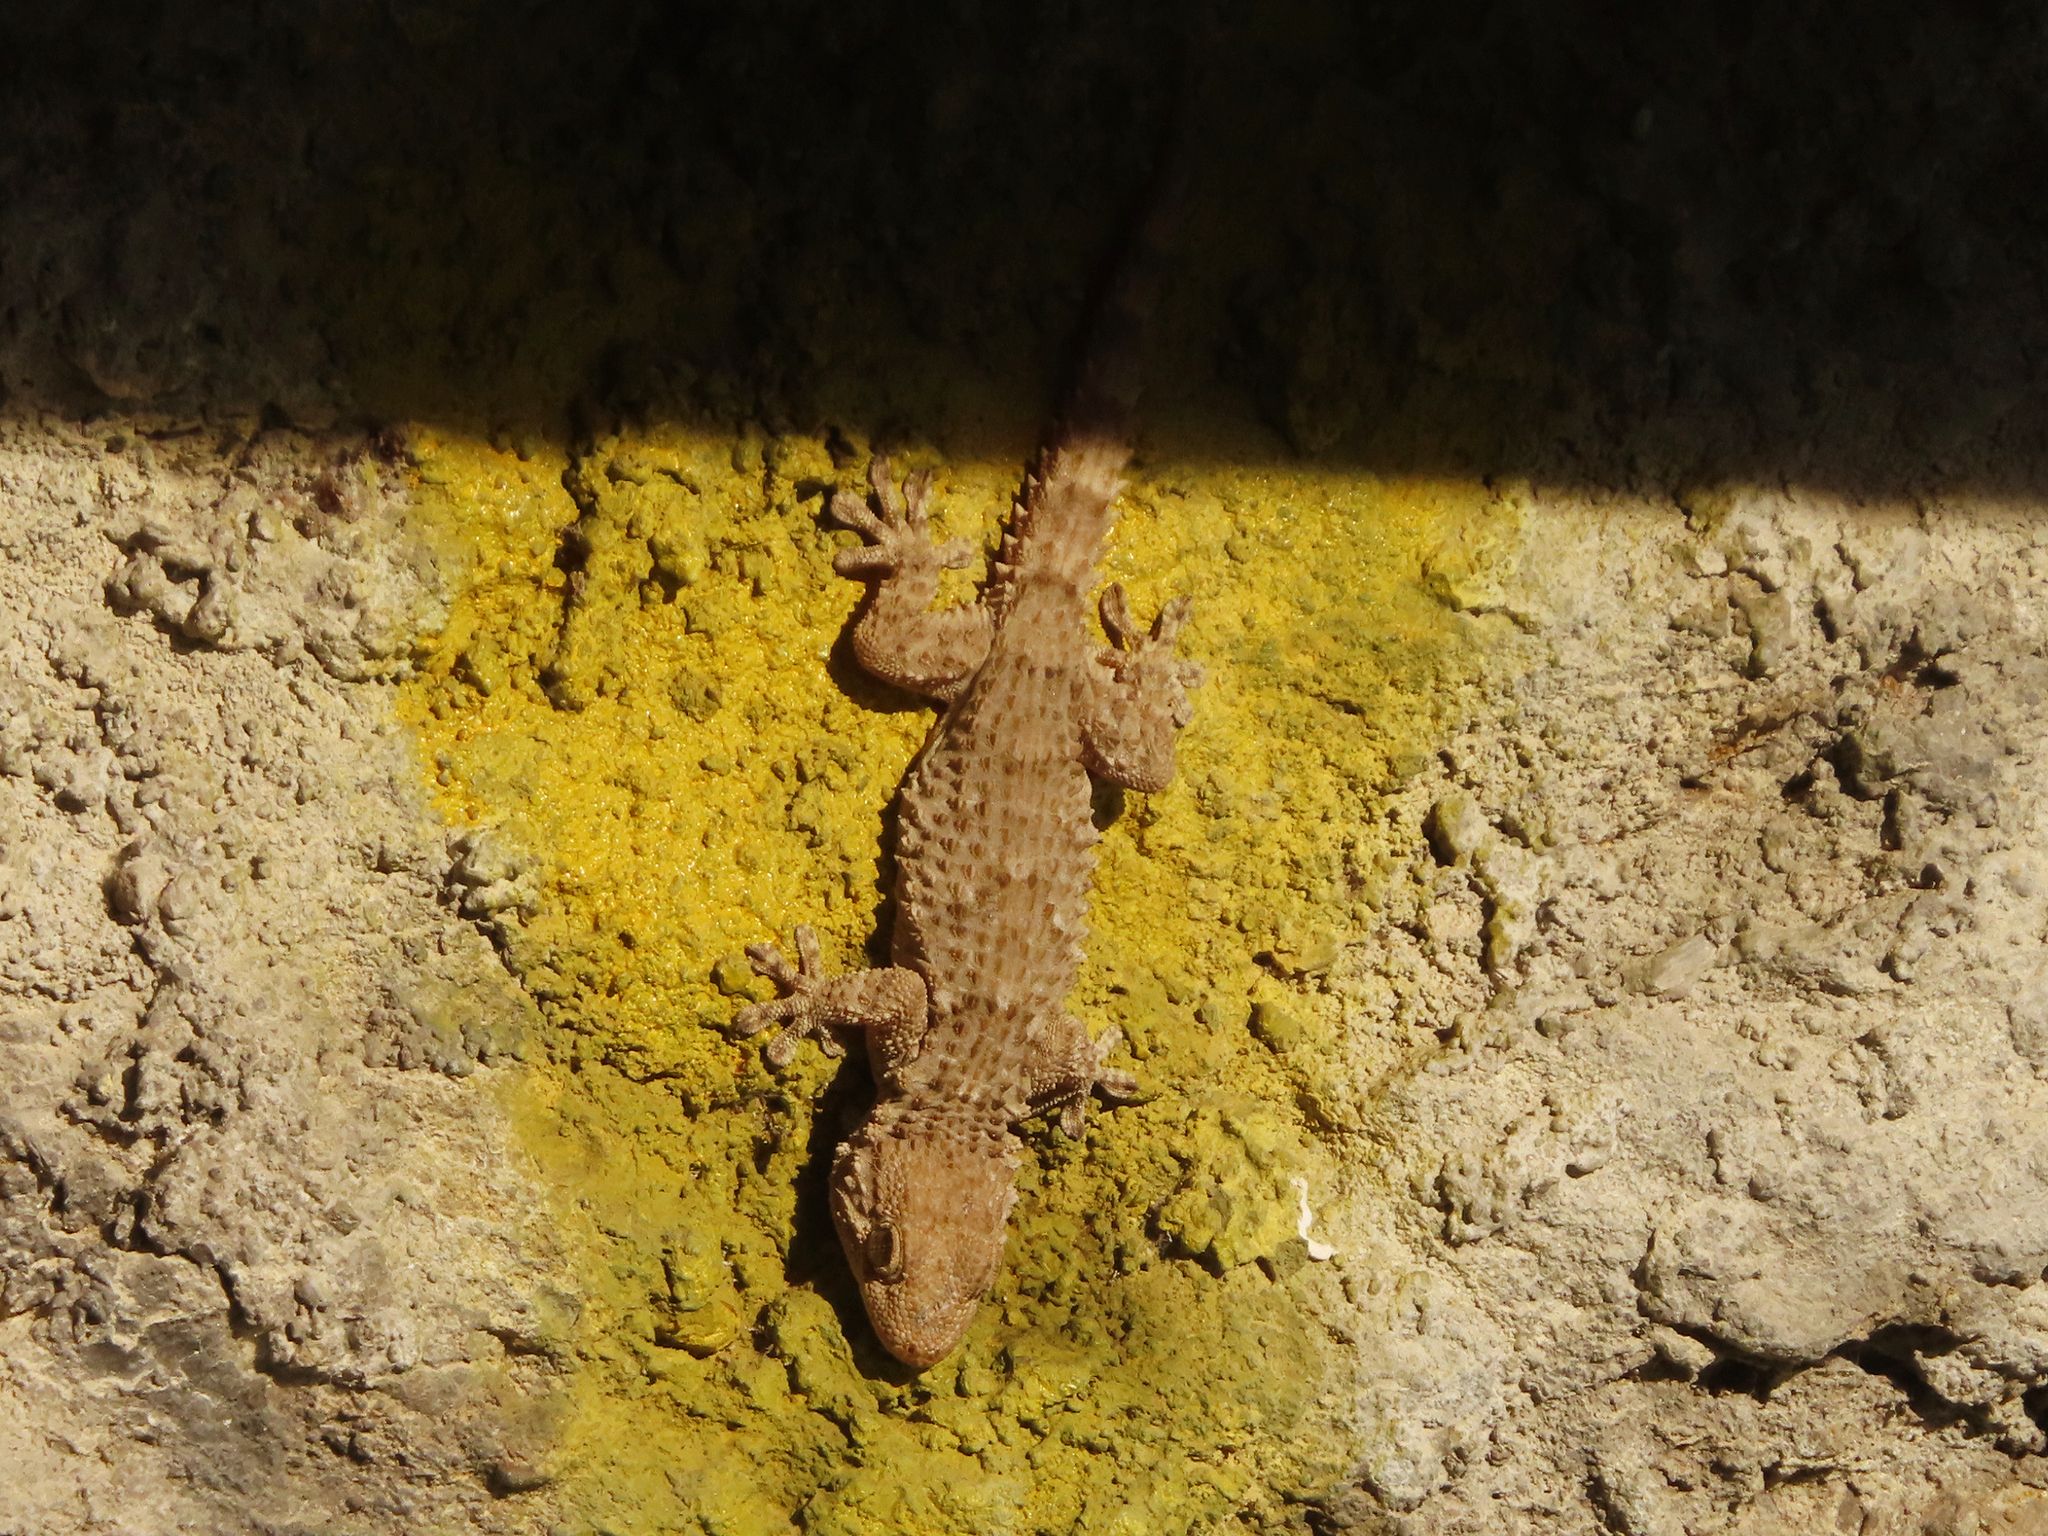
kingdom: Animalia
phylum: Chordata
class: Squamata
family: Phyllodactylidae
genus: Tarentola
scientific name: Tarentola mauritanica
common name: Moorish gecko
